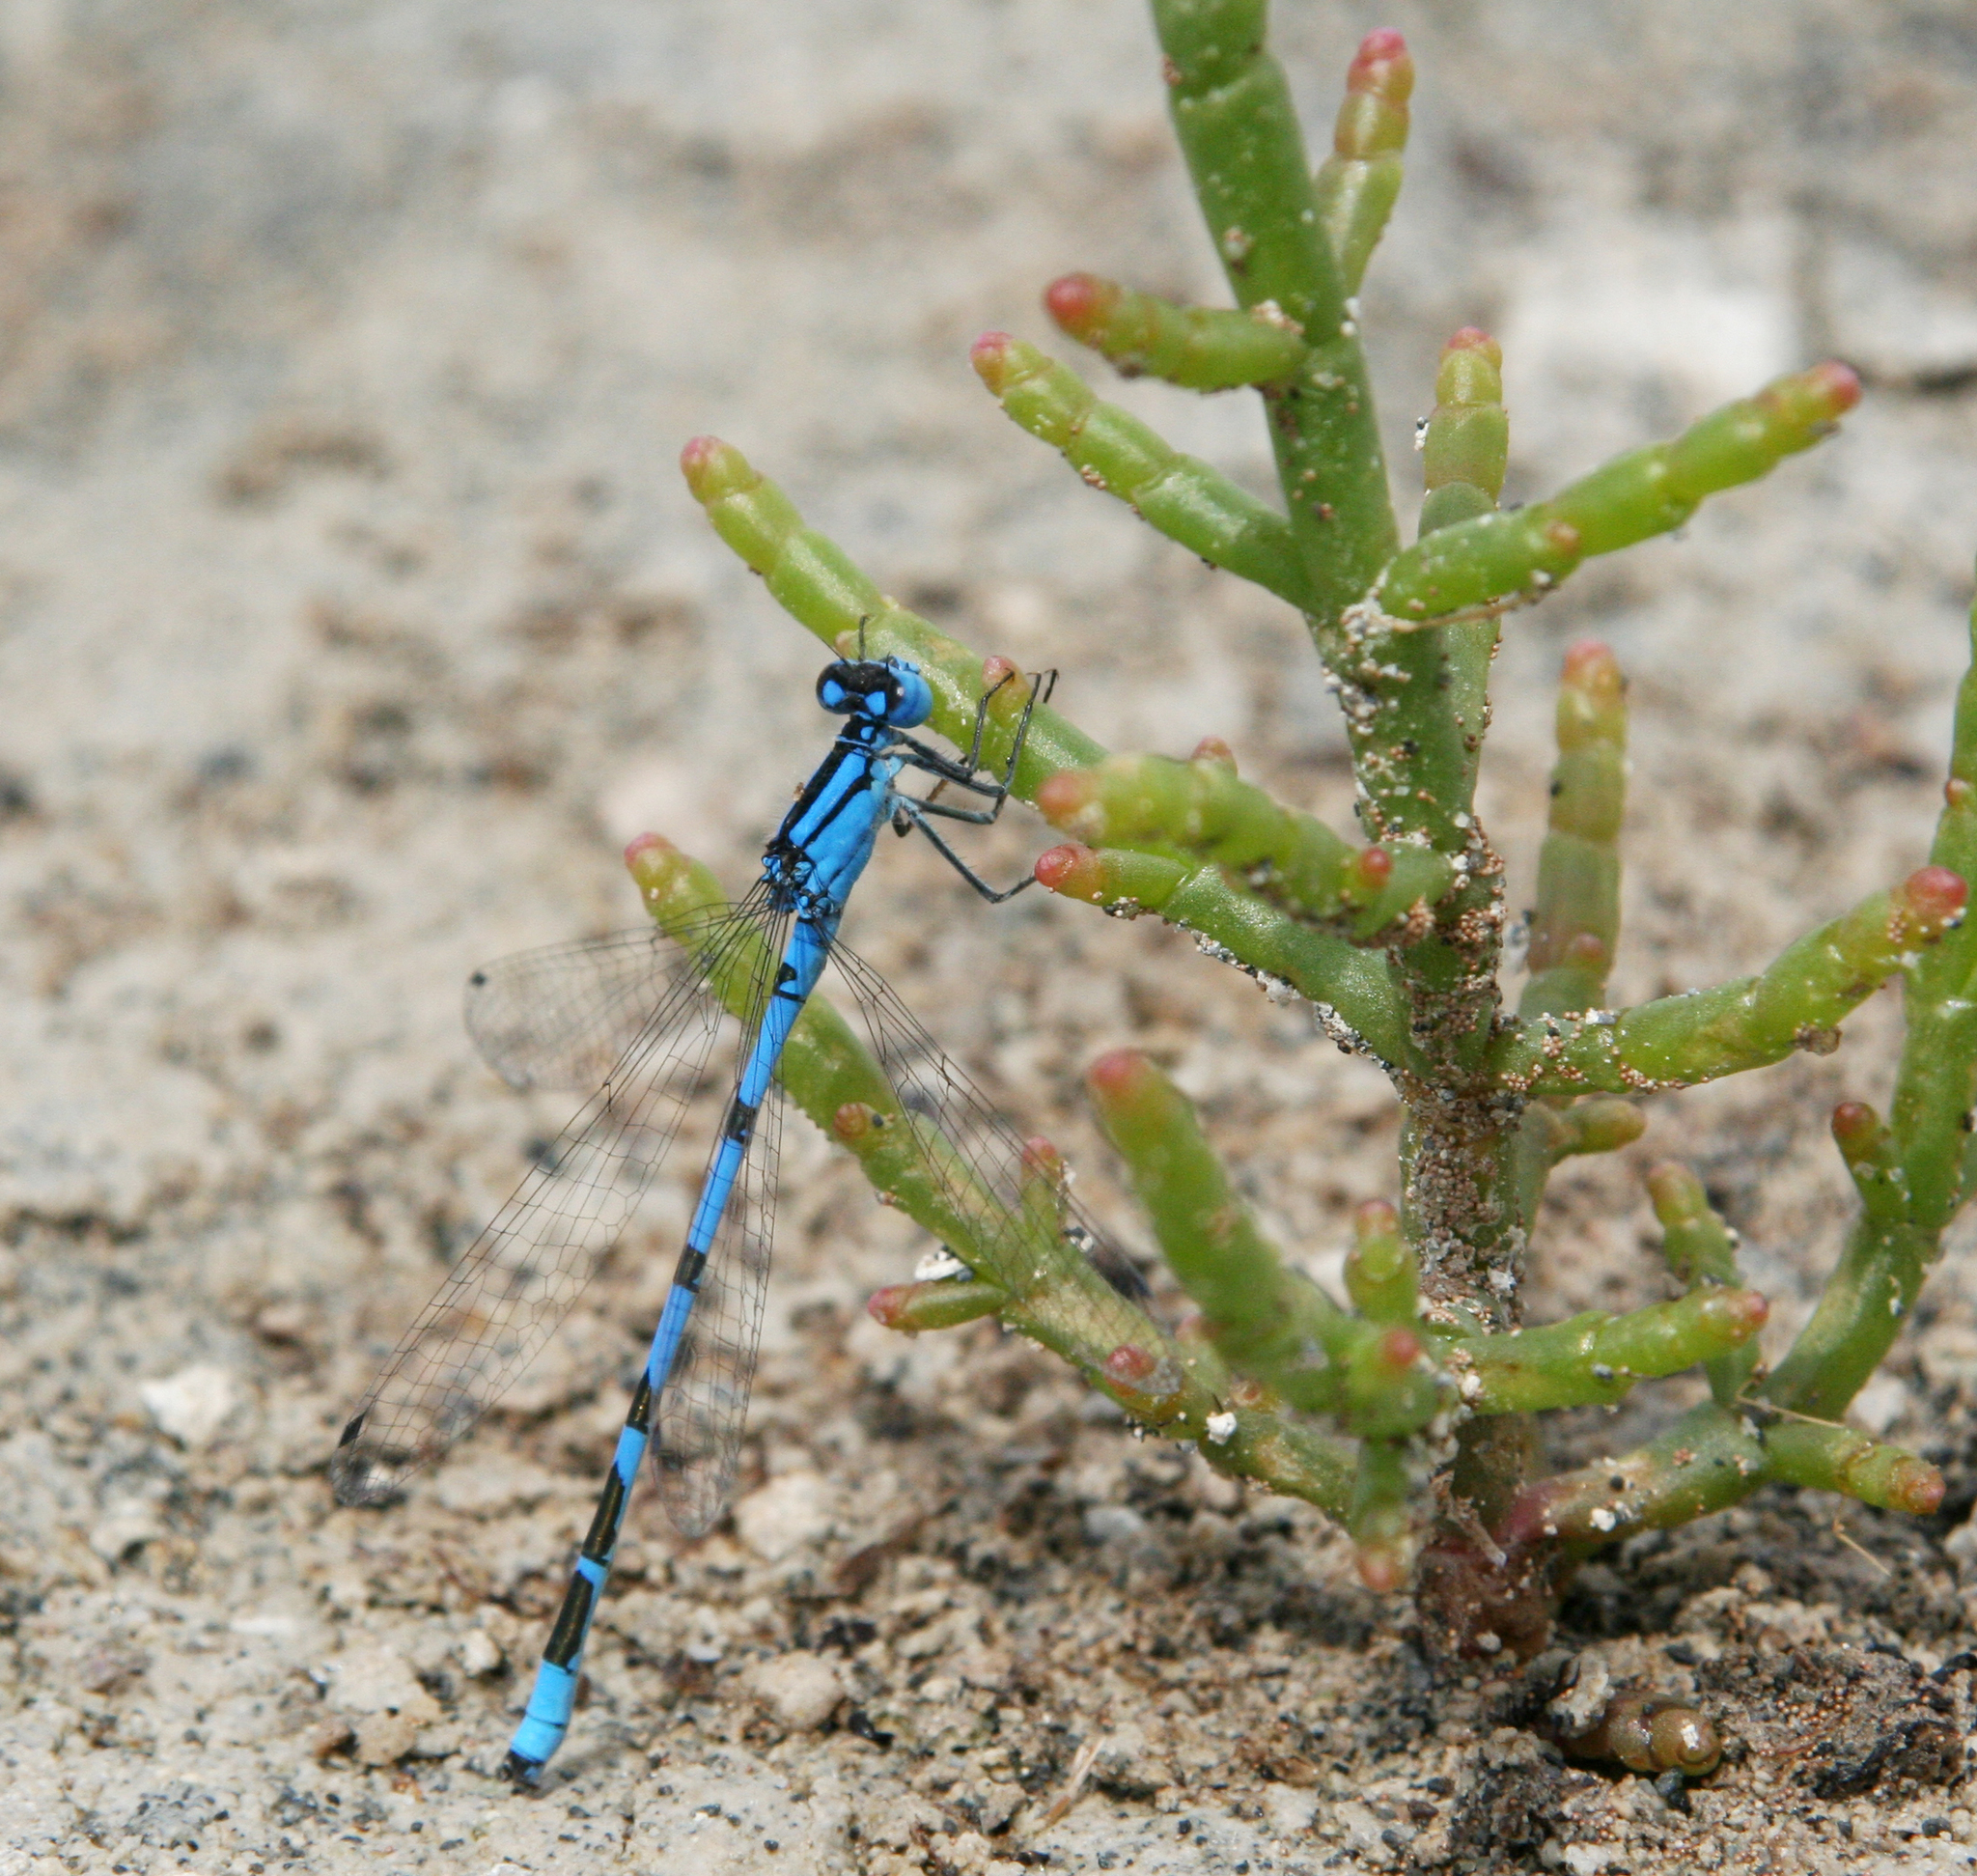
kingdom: Animalia
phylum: Arthropoda
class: Insecta
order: Odonata
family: Coenagrionidae
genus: Enallagma
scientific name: Enallagma cyathigerum
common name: Common blue damselfly
